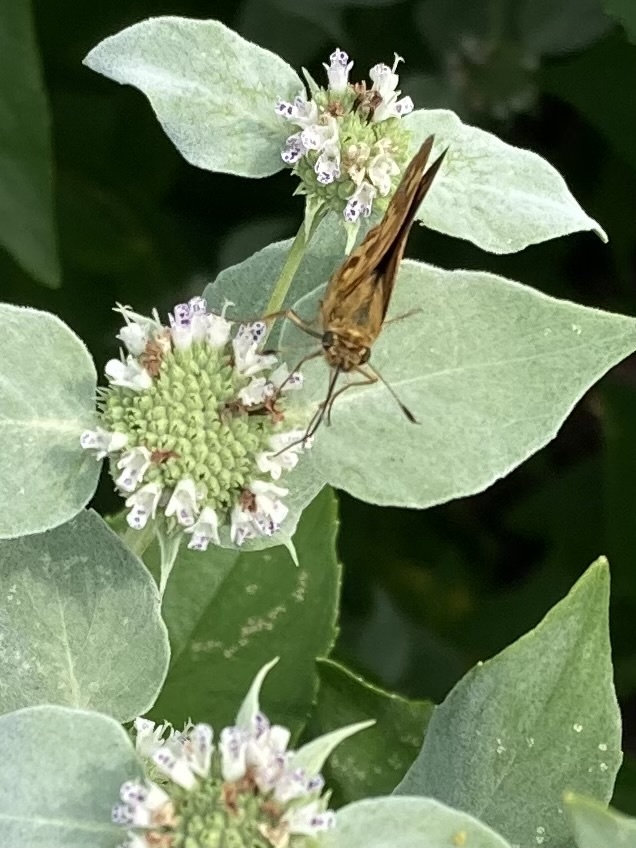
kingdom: Animalia
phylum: Arthropoda
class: Insecta
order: Lepidoptera
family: Hesperiidae
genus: Polites
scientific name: Polites coras
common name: Peck's skipper
